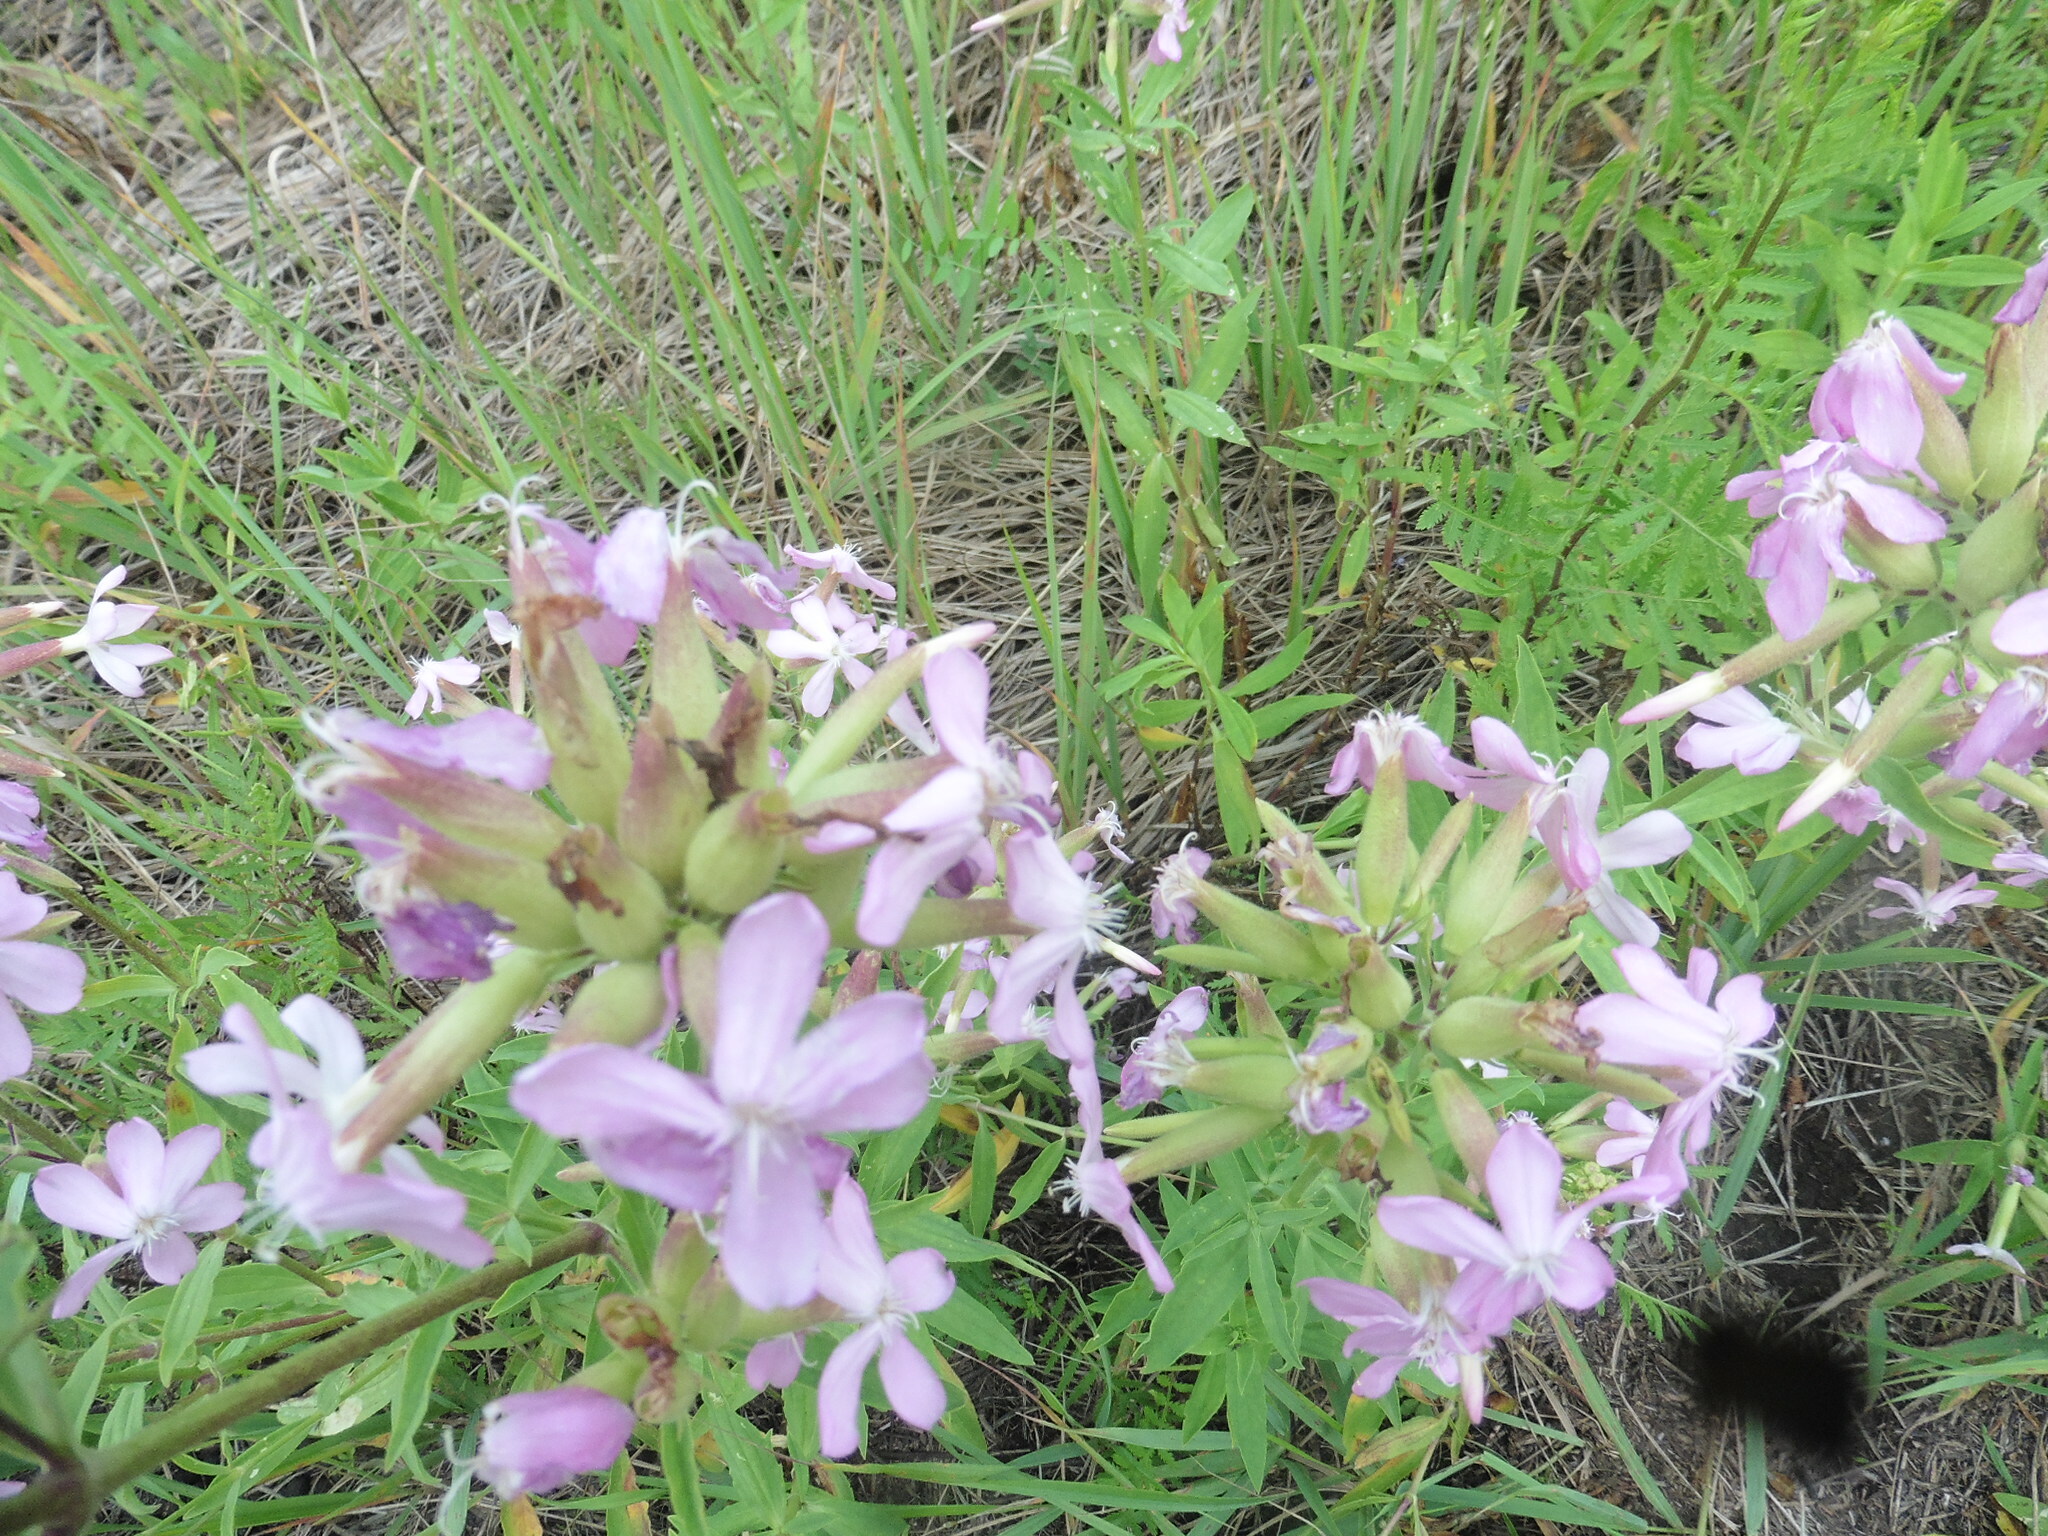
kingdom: Plantae
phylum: Tracheophyta
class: Magnoliopsida
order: Caryophyllales
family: Caryophyllaceae
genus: Saponaria
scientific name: Saponaria officinalis
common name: Soapwort
